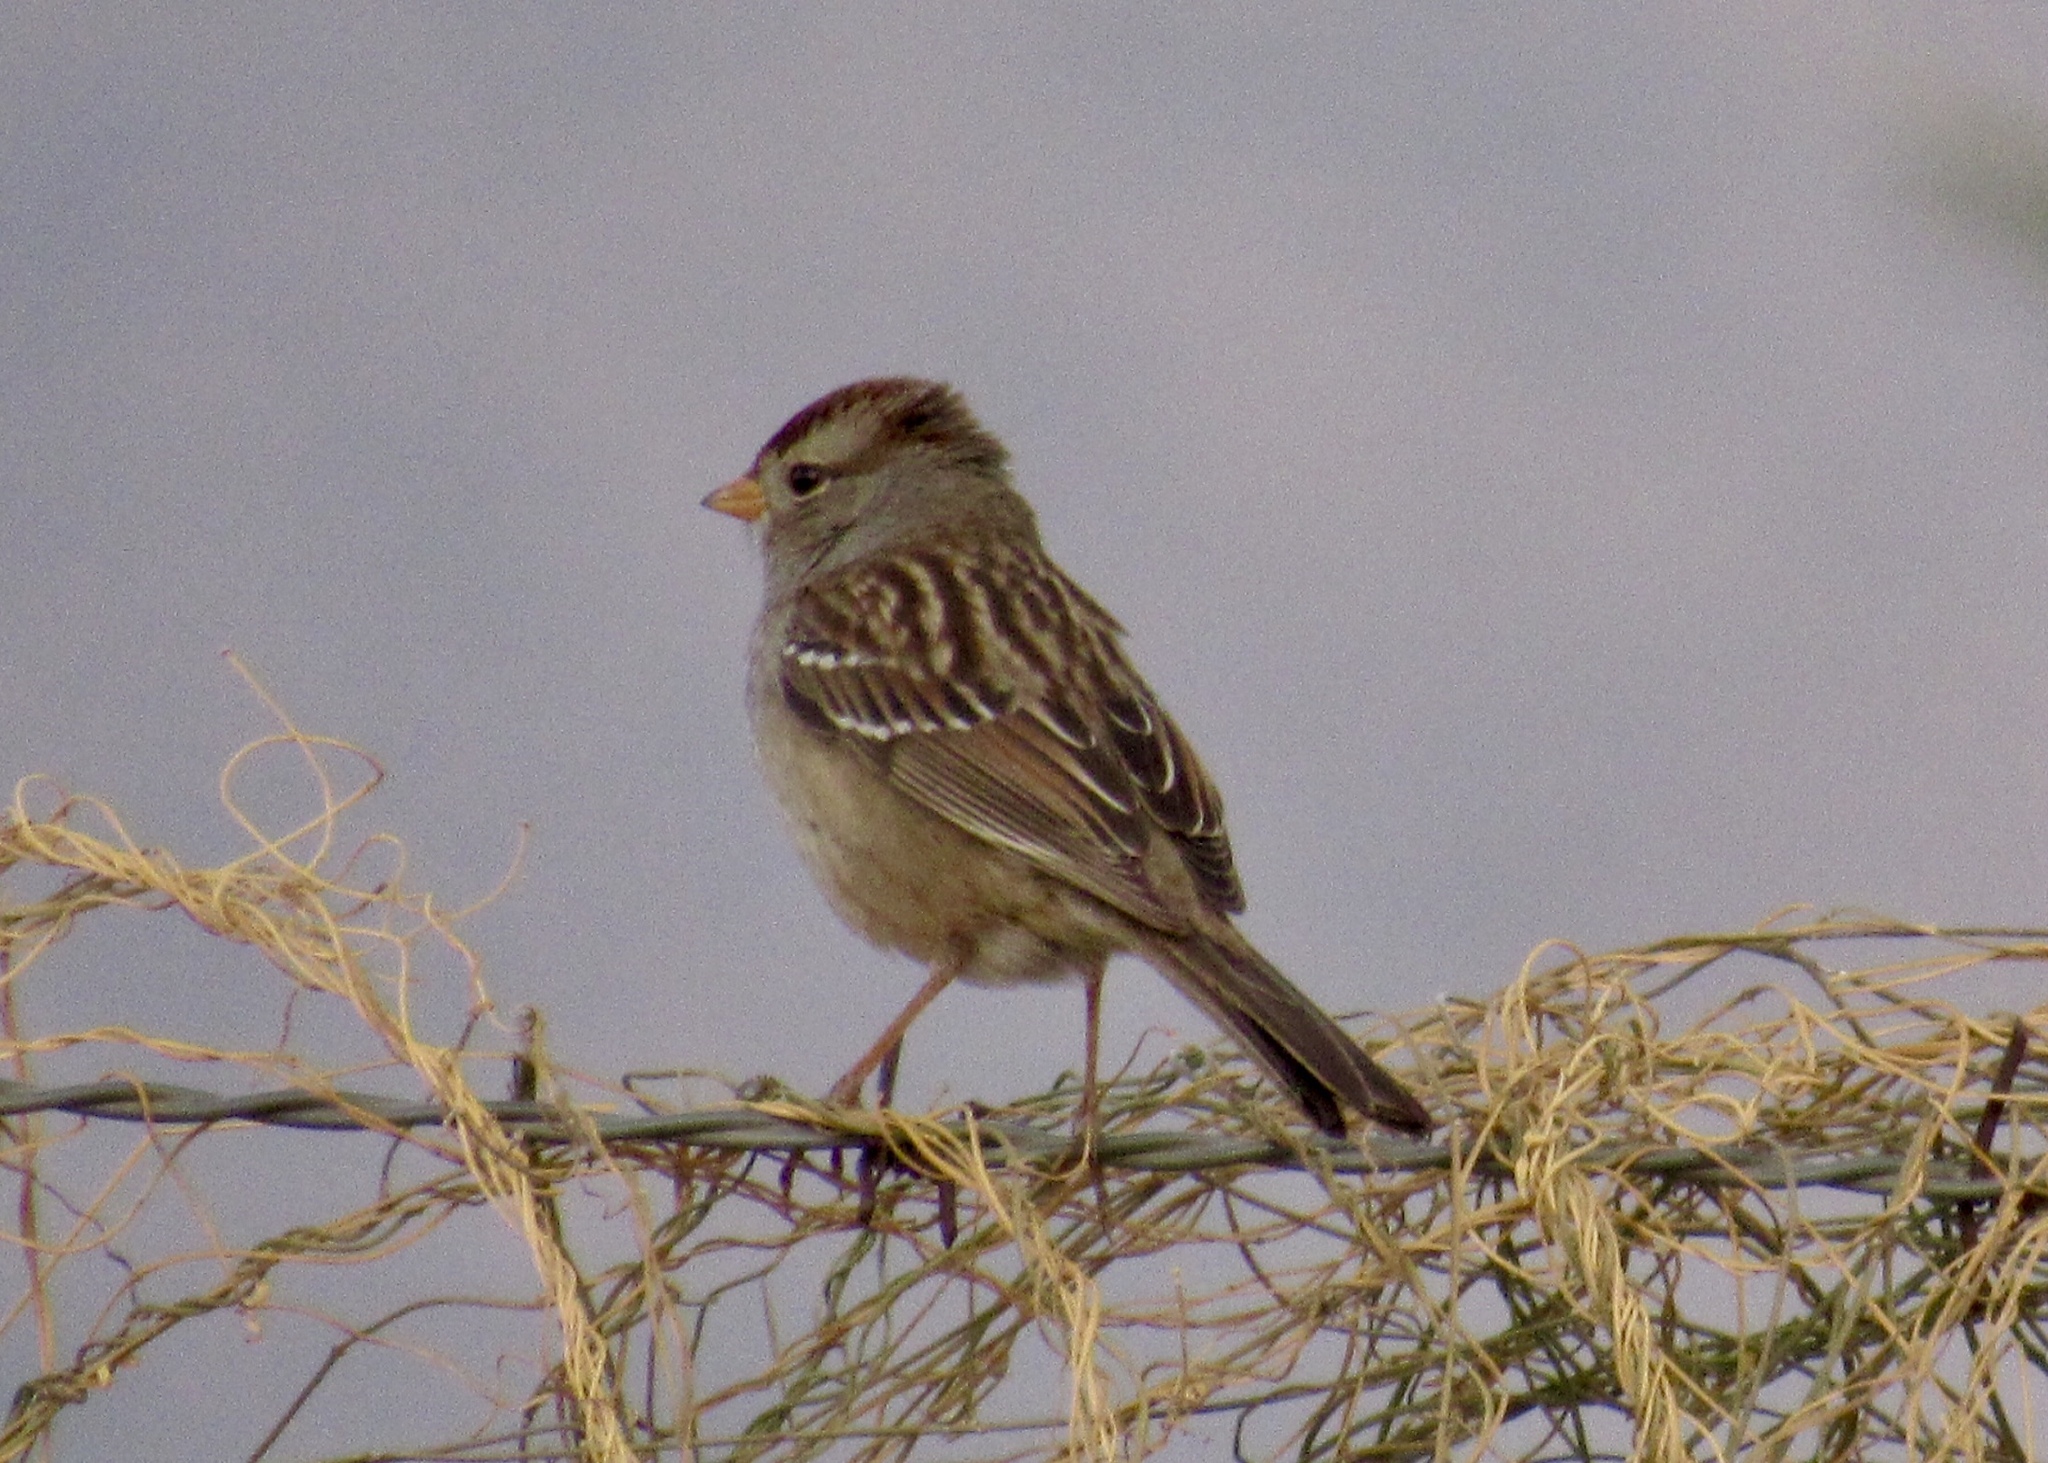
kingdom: Animalia
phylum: Chordata
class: Aves
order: Passeriformes
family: Passerellidae
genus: Zonotrichia
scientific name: Zonotrichia leucophrys
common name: White-crowned sparrow
